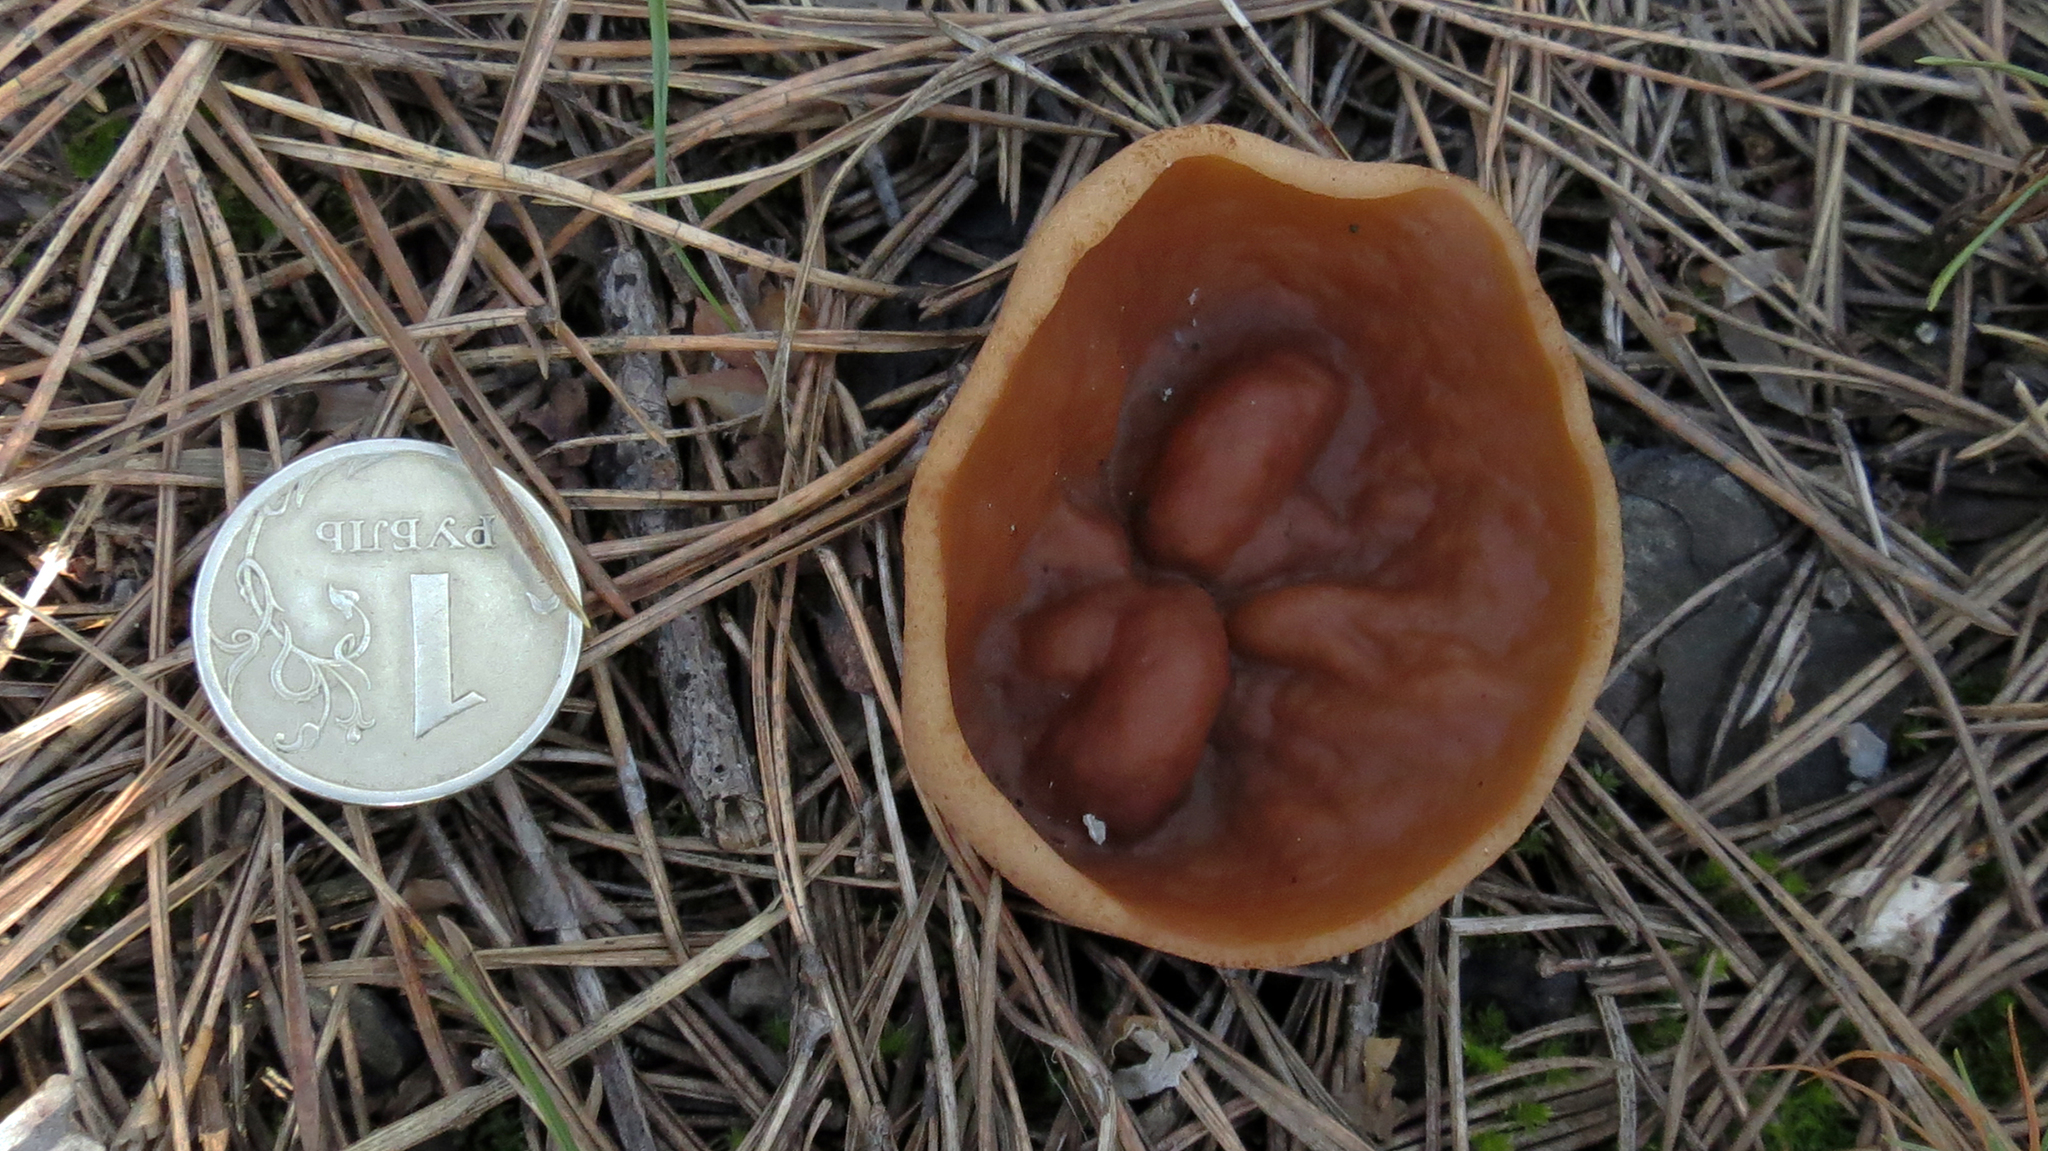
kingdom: Fungi
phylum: Ascomycota
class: Pezizomycetes
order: Pezizales
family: Discinaceae
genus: Discina
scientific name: Discina ancilis
